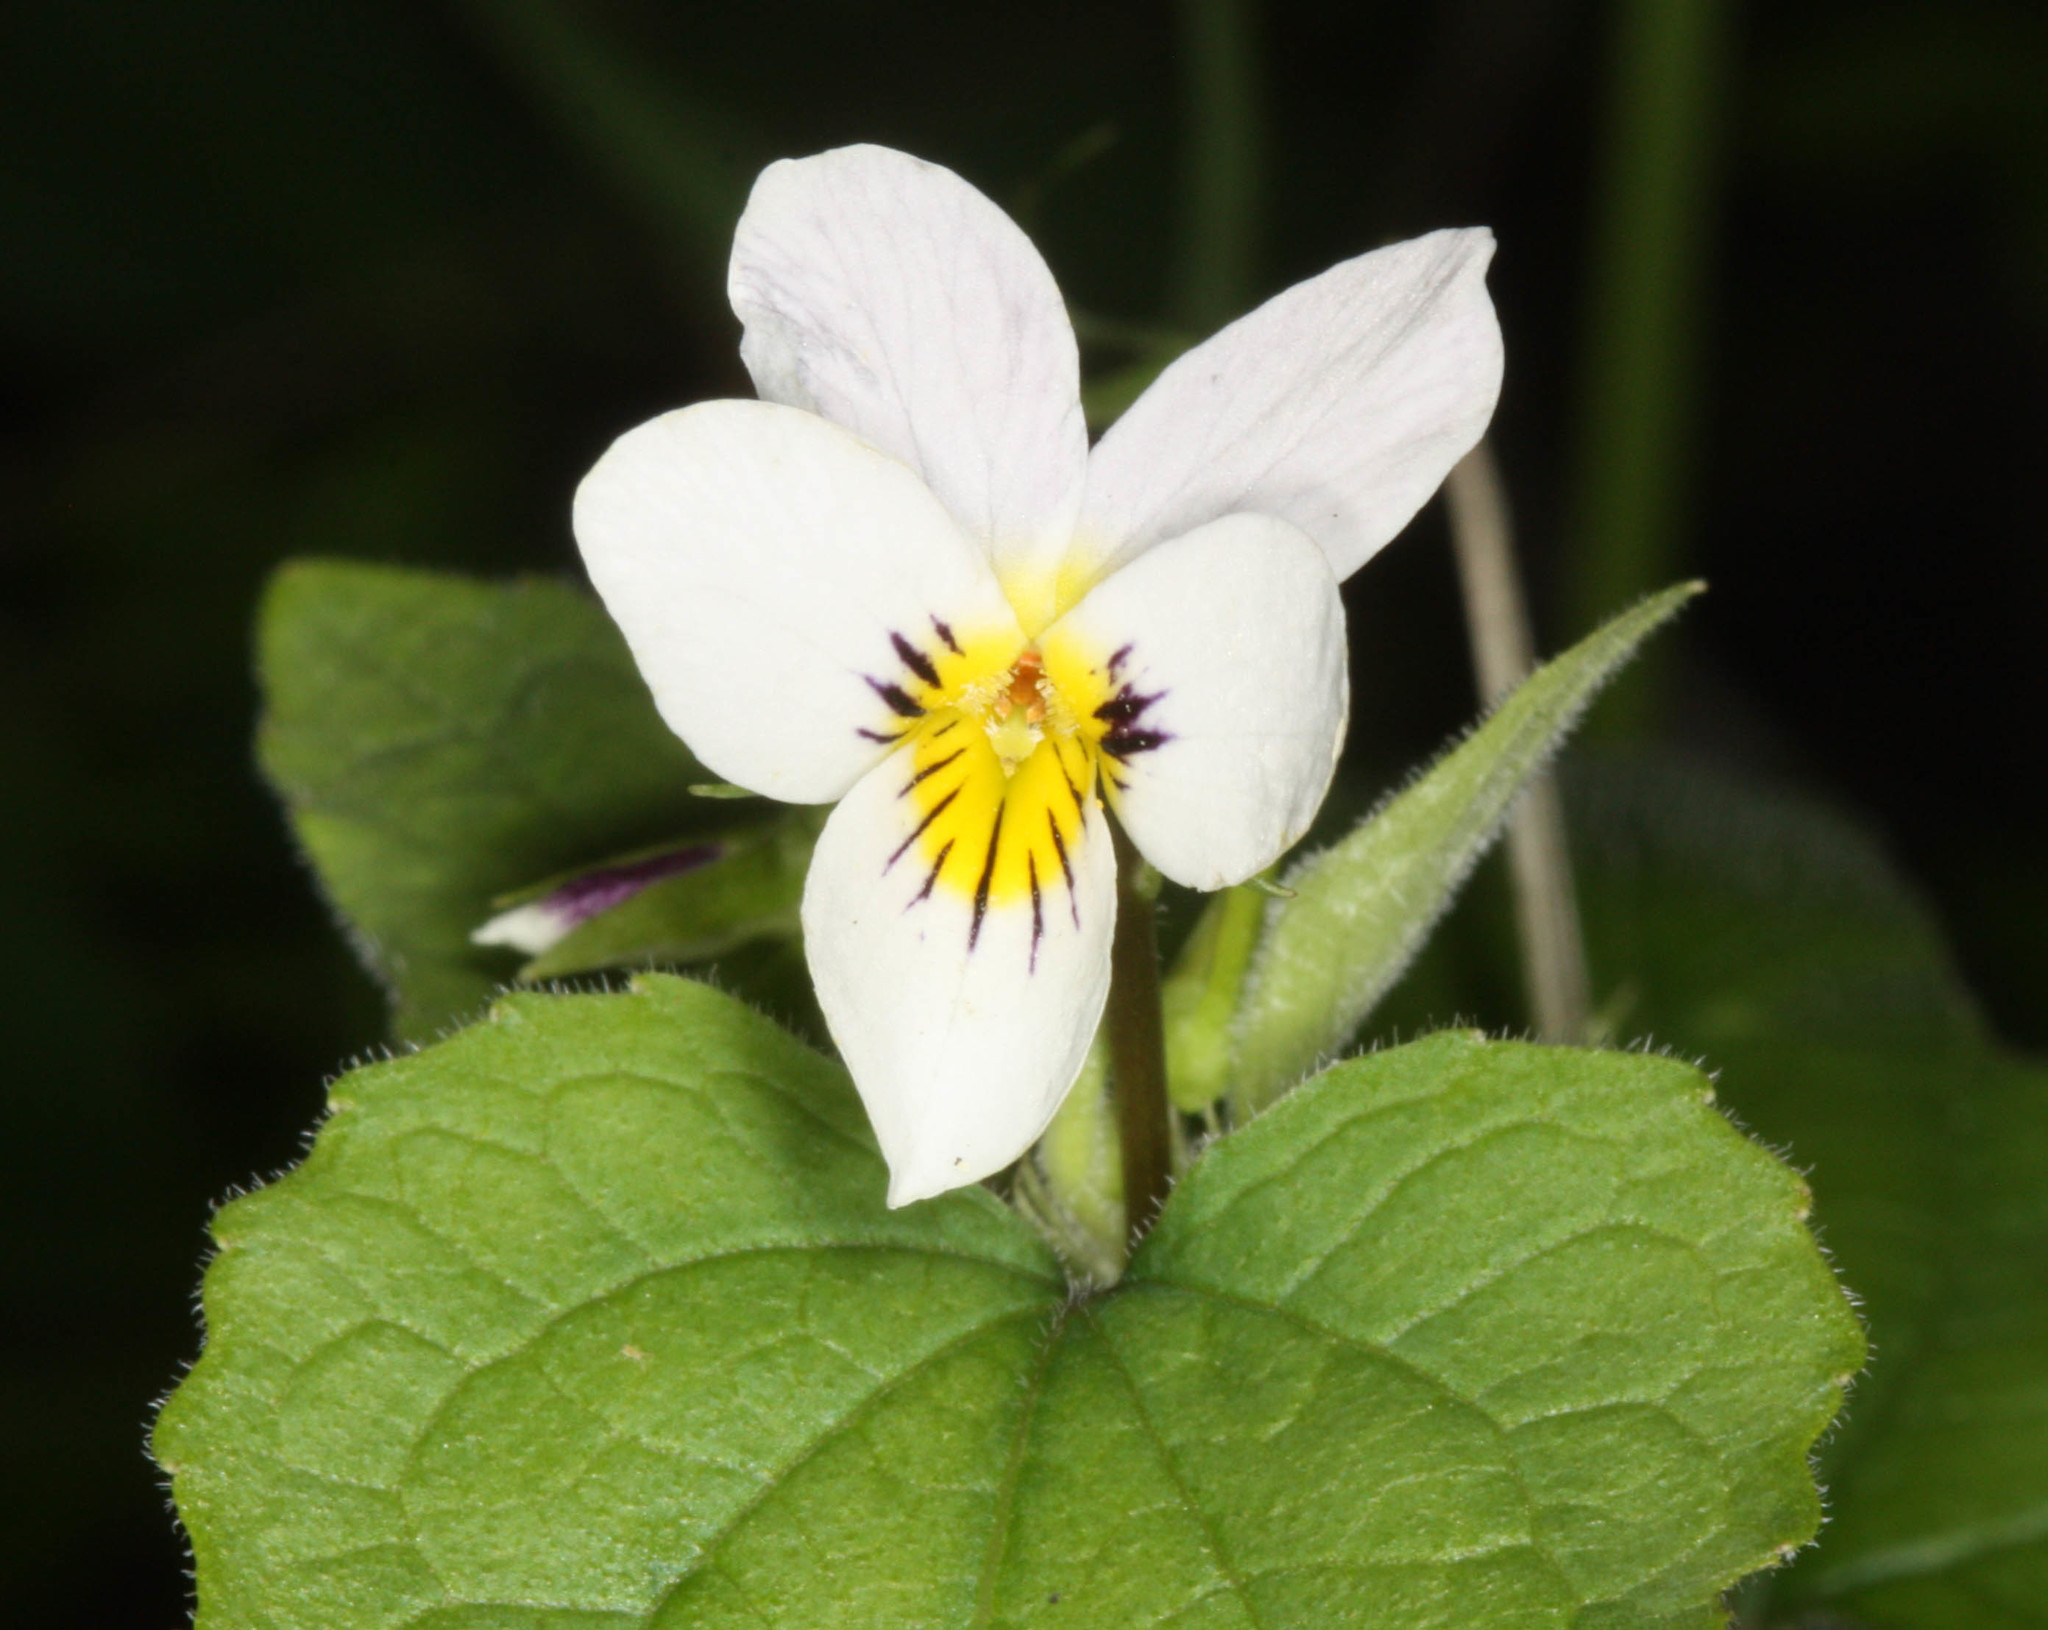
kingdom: Plantae
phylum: Tracheophyta
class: Magnoliopsida
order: Malpighiales
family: Violaceae
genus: Viola
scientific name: Viola ocellata
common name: Western heart's ease
